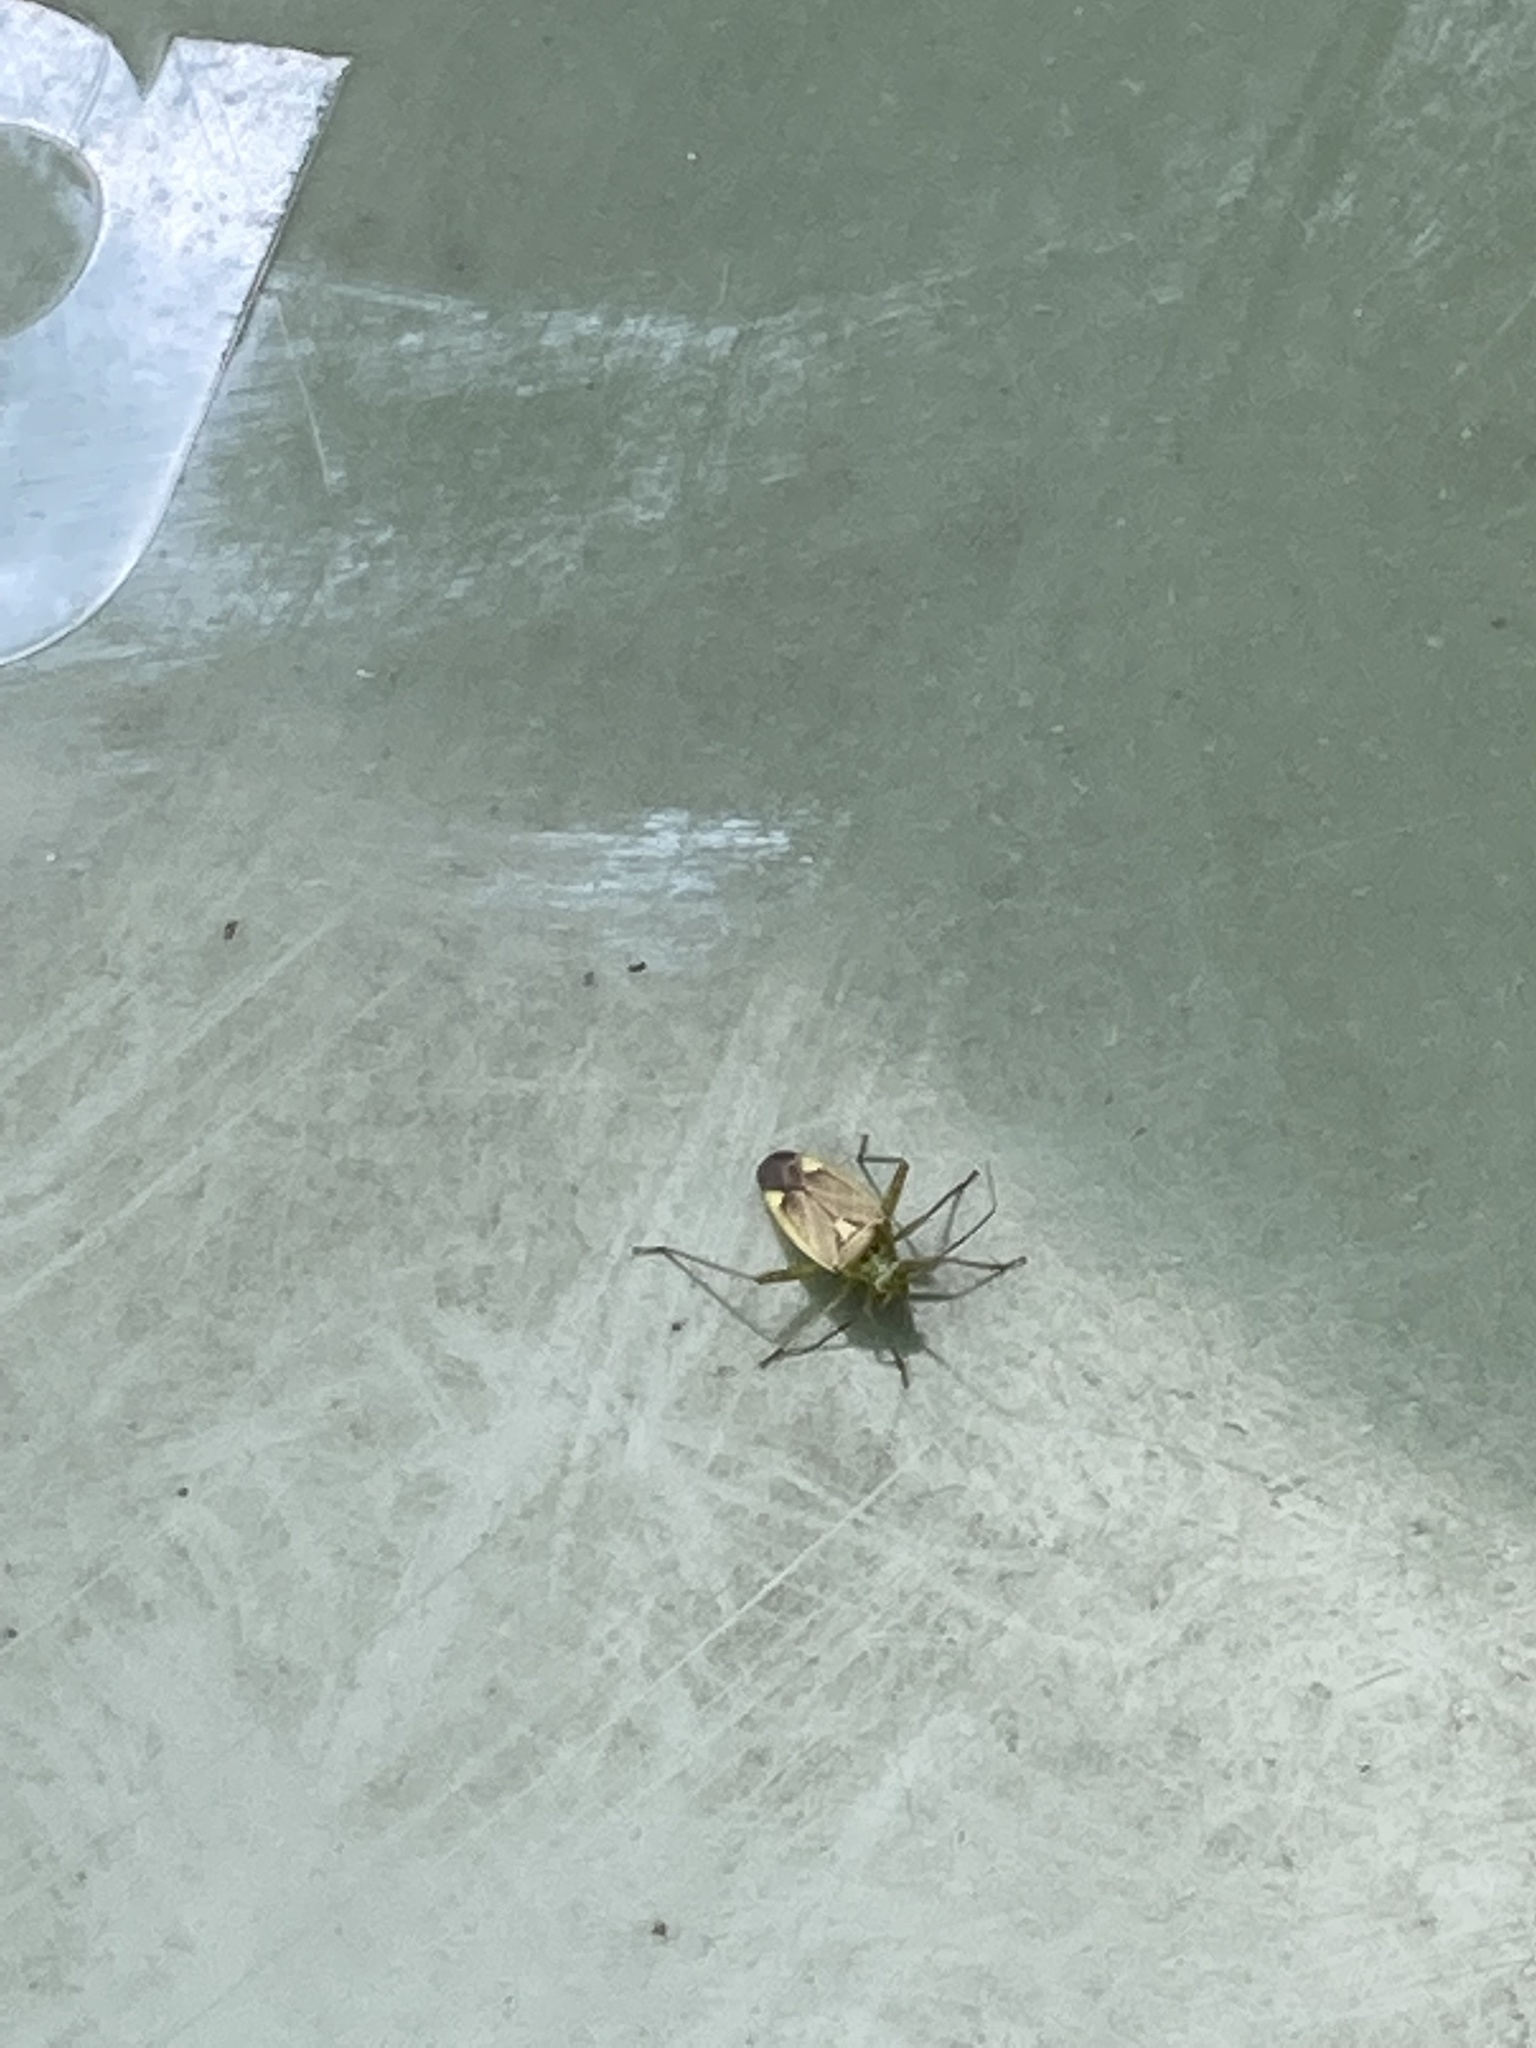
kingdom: Animalia
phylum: Arthropoda
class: Insecta
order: Hemiptera
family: Miridae
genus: Closterotomus
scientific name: Closterotomus trivialis
